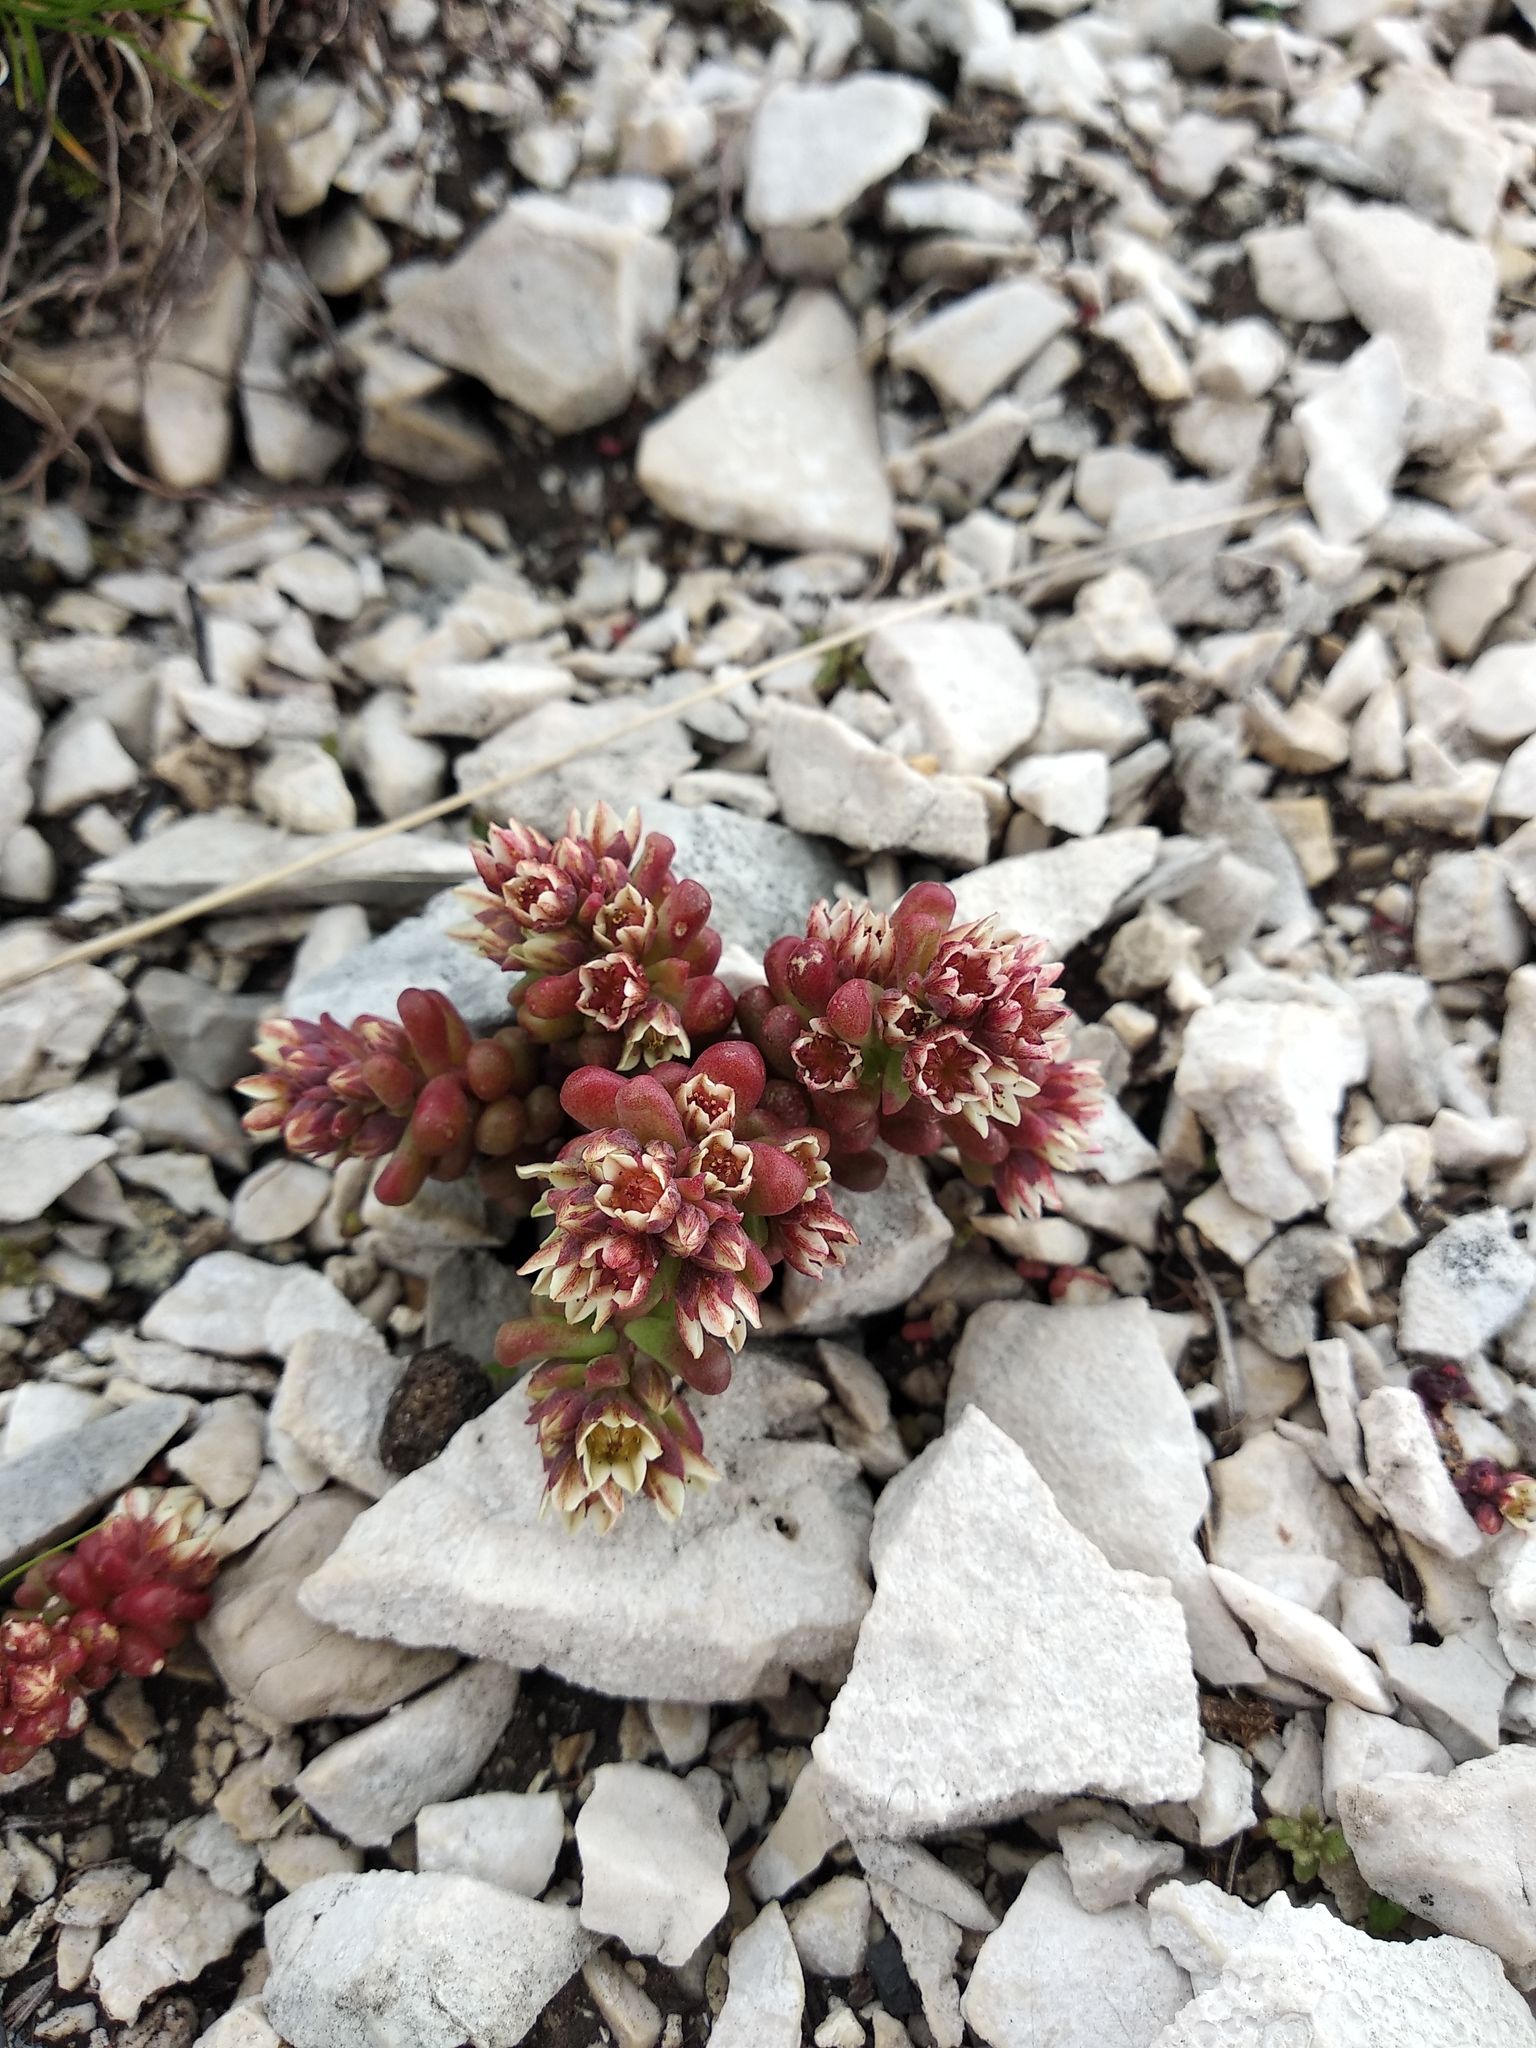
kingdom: Plantae
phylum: Tracheophyta
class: Magnoliopsida
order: Saxifragales
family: Crassulaceae
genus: Sedum
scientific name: Sedum atratum
